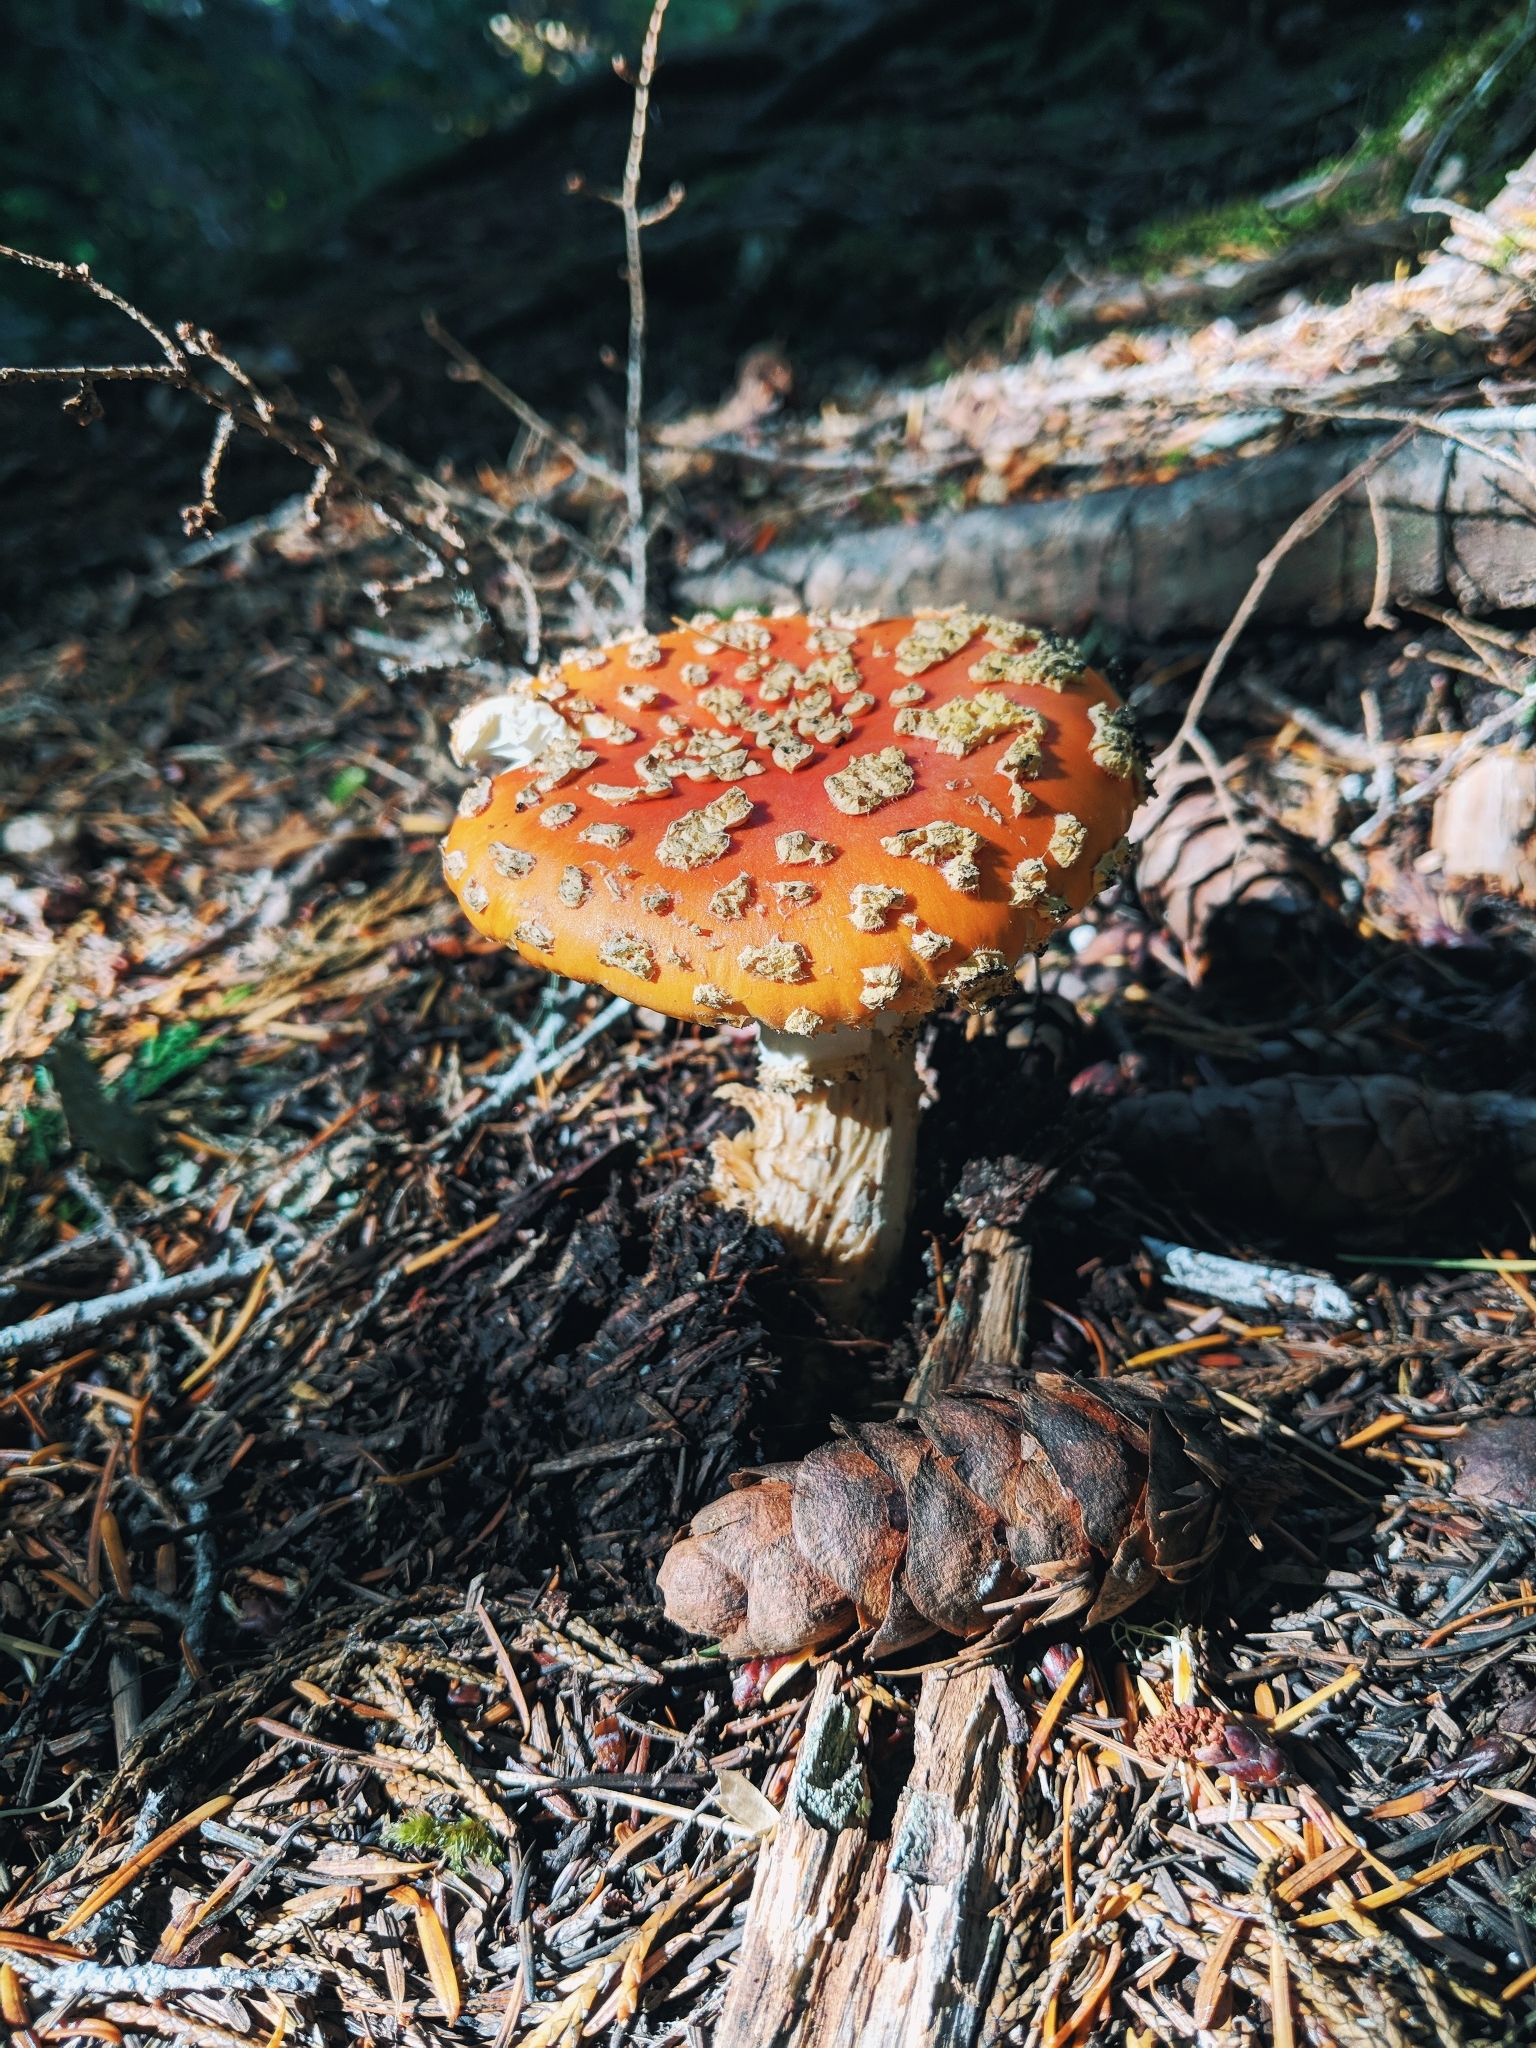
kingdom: Fungi
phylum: Basidiomycota
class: Agaricomycetes
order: Agaricales
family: Amanitaceae
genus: Amanita
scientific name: Amanita muscaria
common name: Fly agaric
